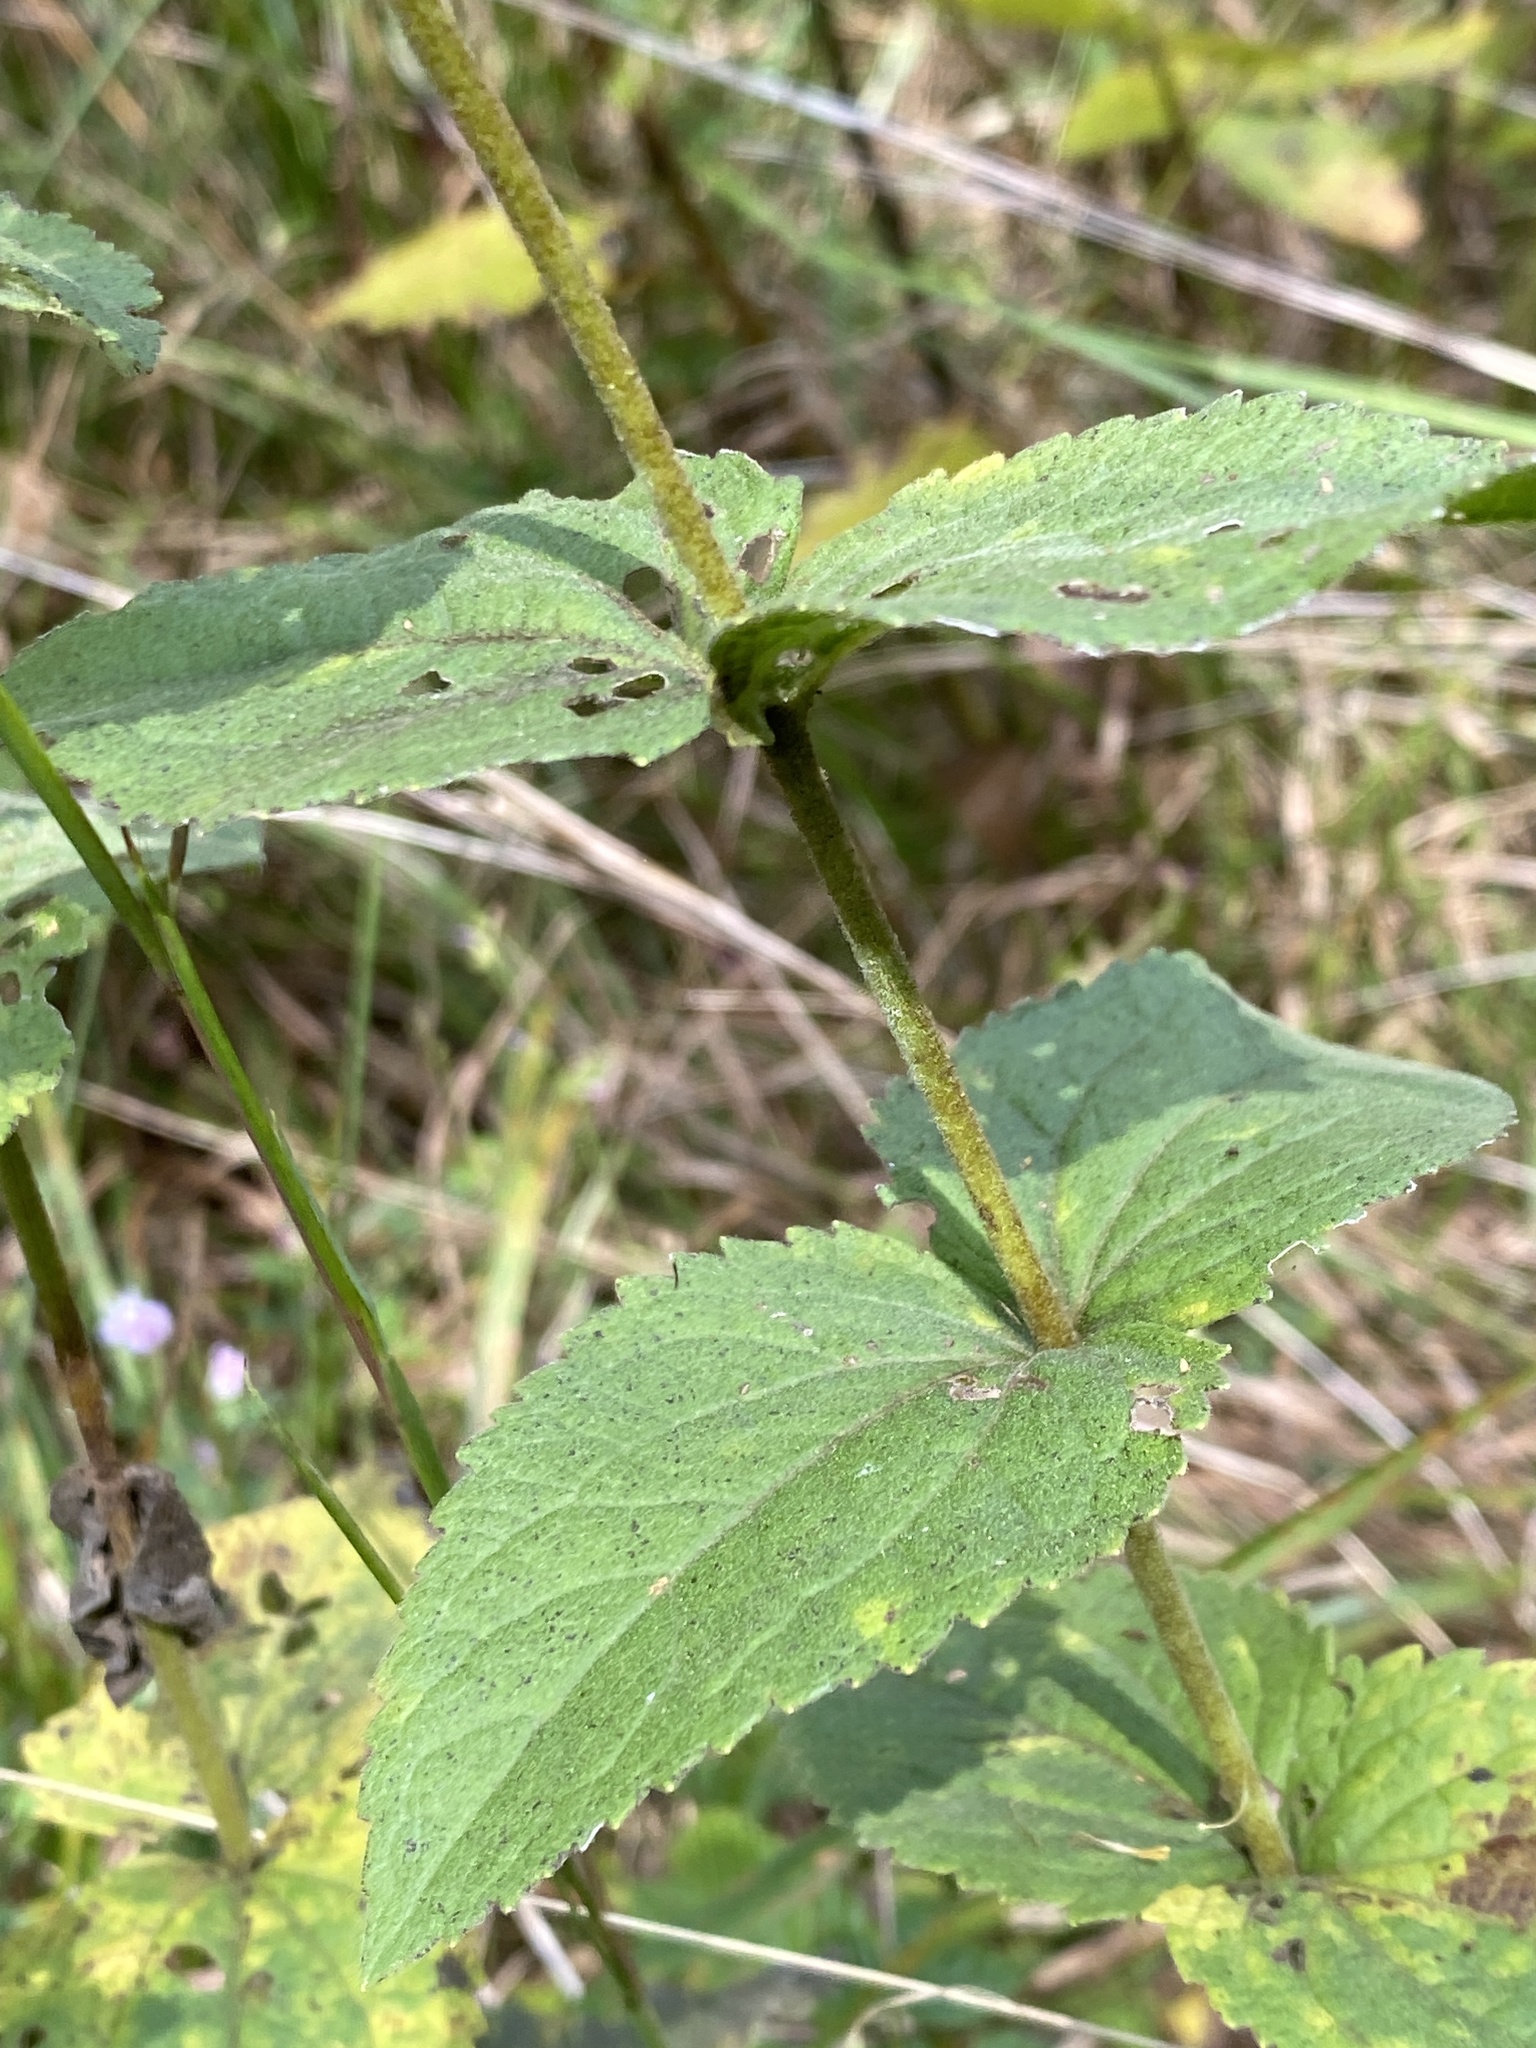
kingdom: Plantae
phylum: Tracheophyta
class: Magnoliopsida
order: Asterales
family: Asteraceae
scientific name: Asteraceae
